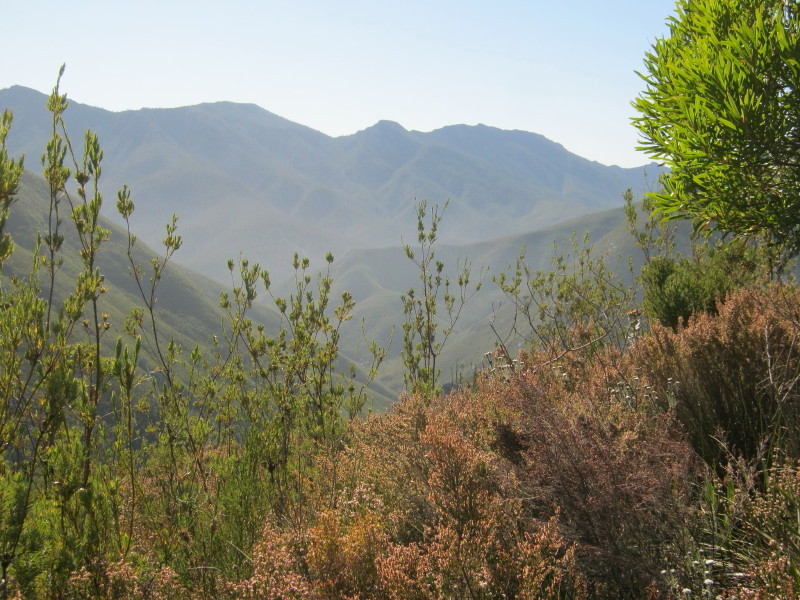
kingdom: Plantae
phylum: Tracheophyta
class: Magnoliopsida
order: Proteales
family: Proteaceae
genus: Leucadendron
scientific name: Leucadendron uliginosum
